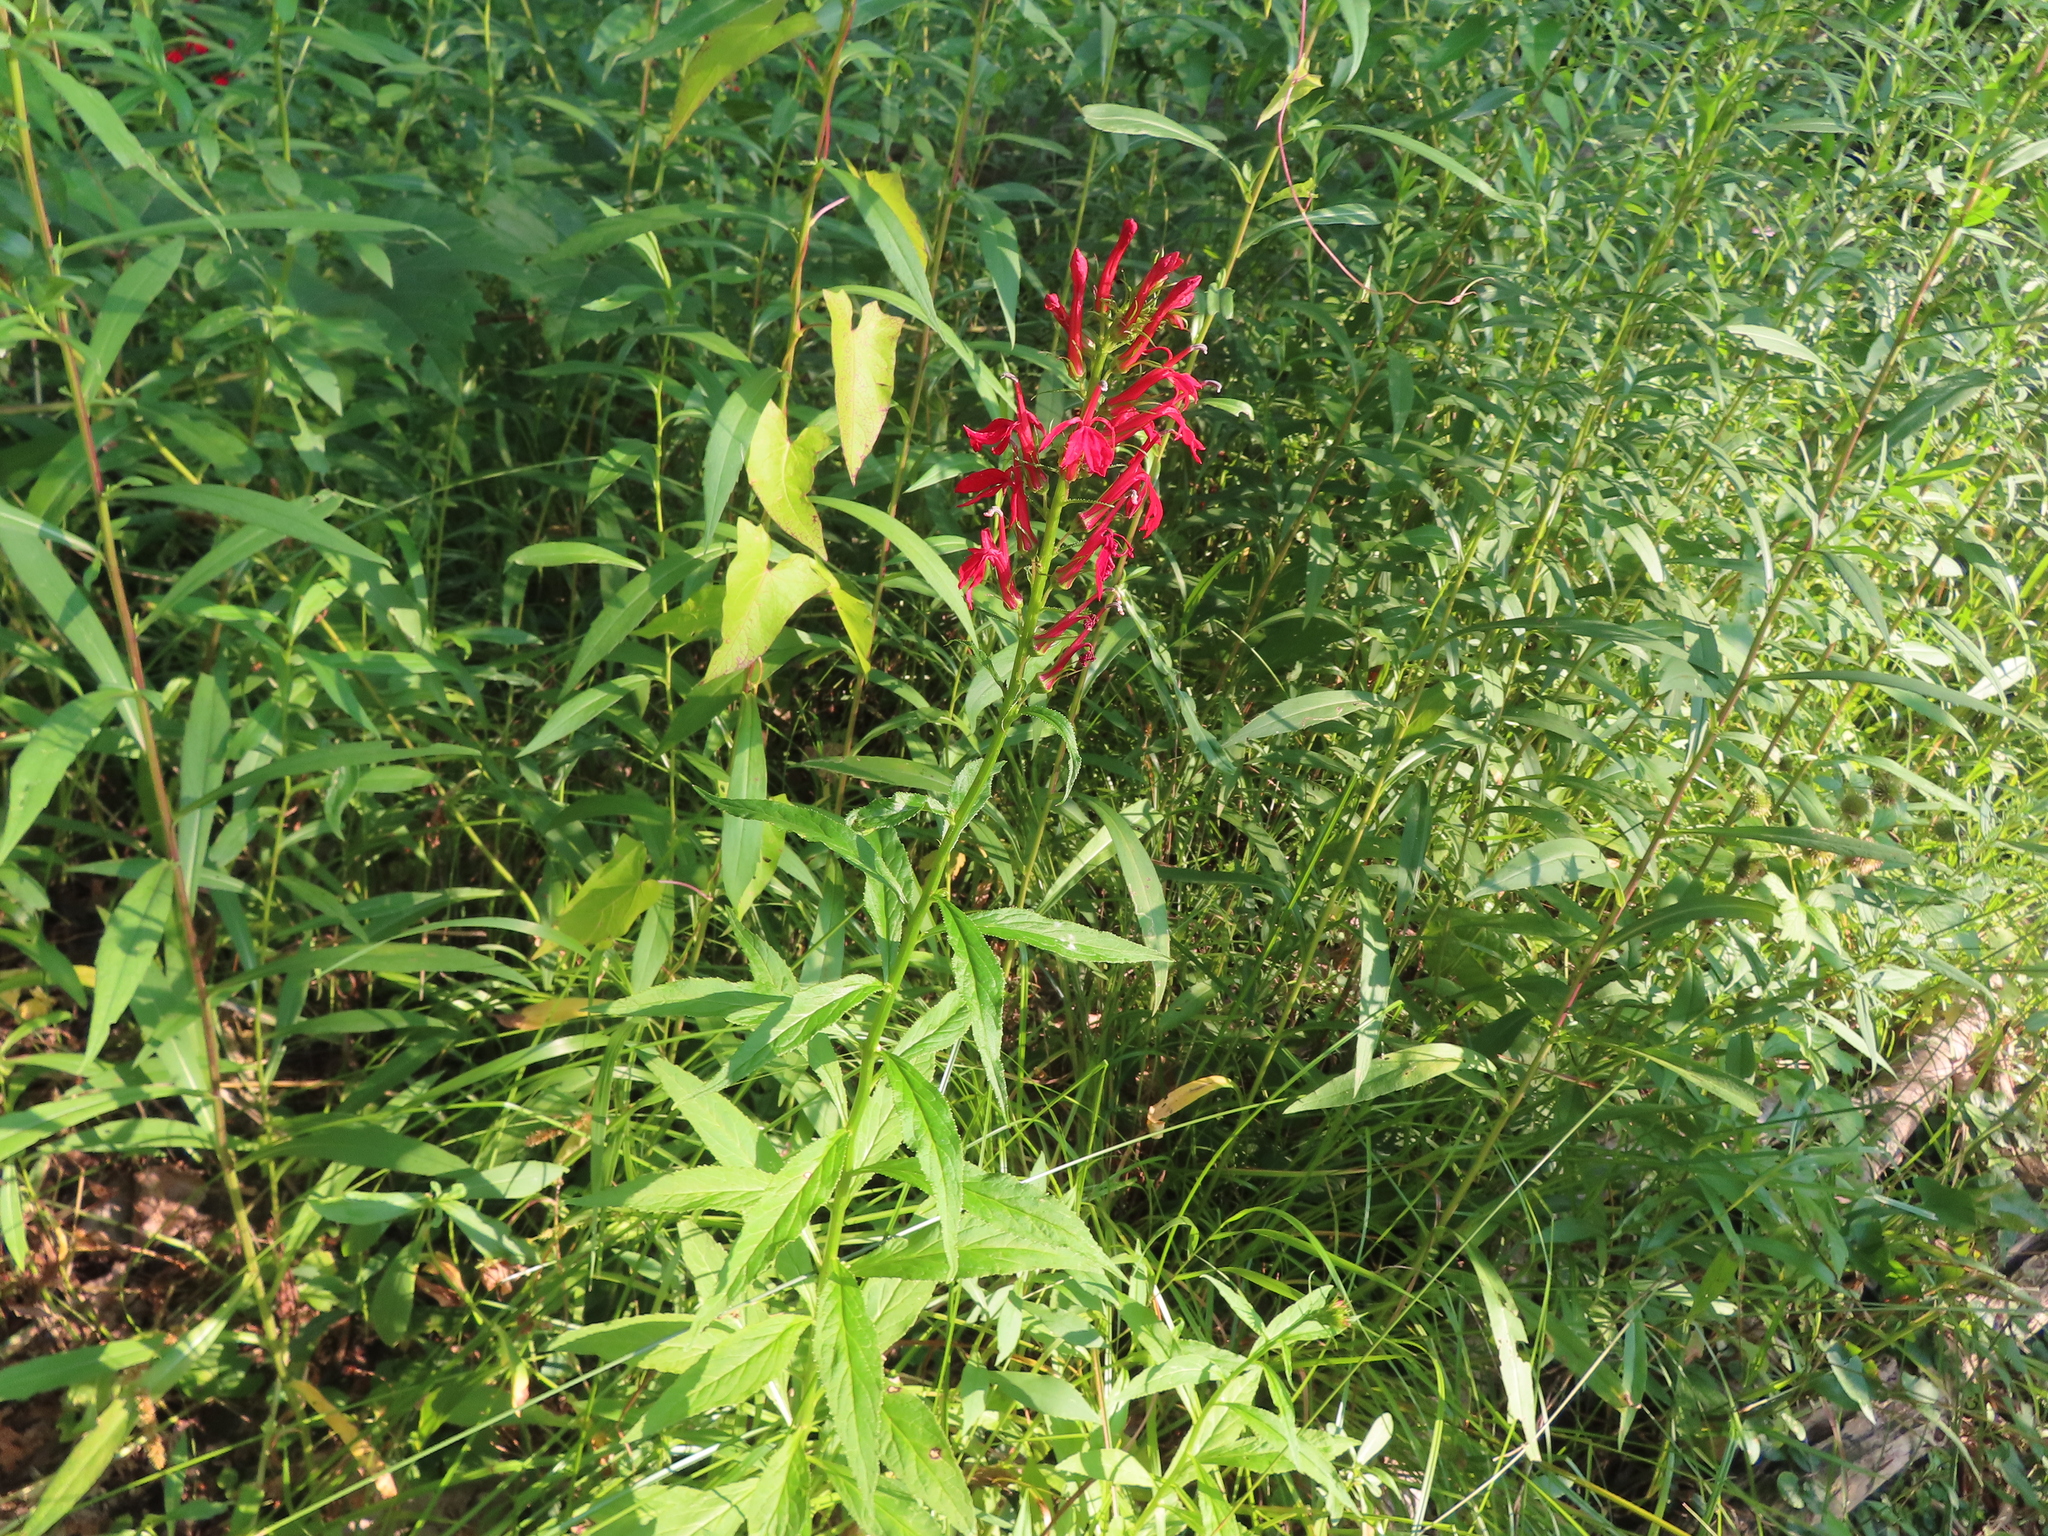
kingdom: Plantae
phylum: Tracheophyta
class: Magnoliopsida
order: Asterales
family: Campanulaceae
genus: Lobelia
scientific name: Lobelia cardinalis
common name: Cardinal flower
